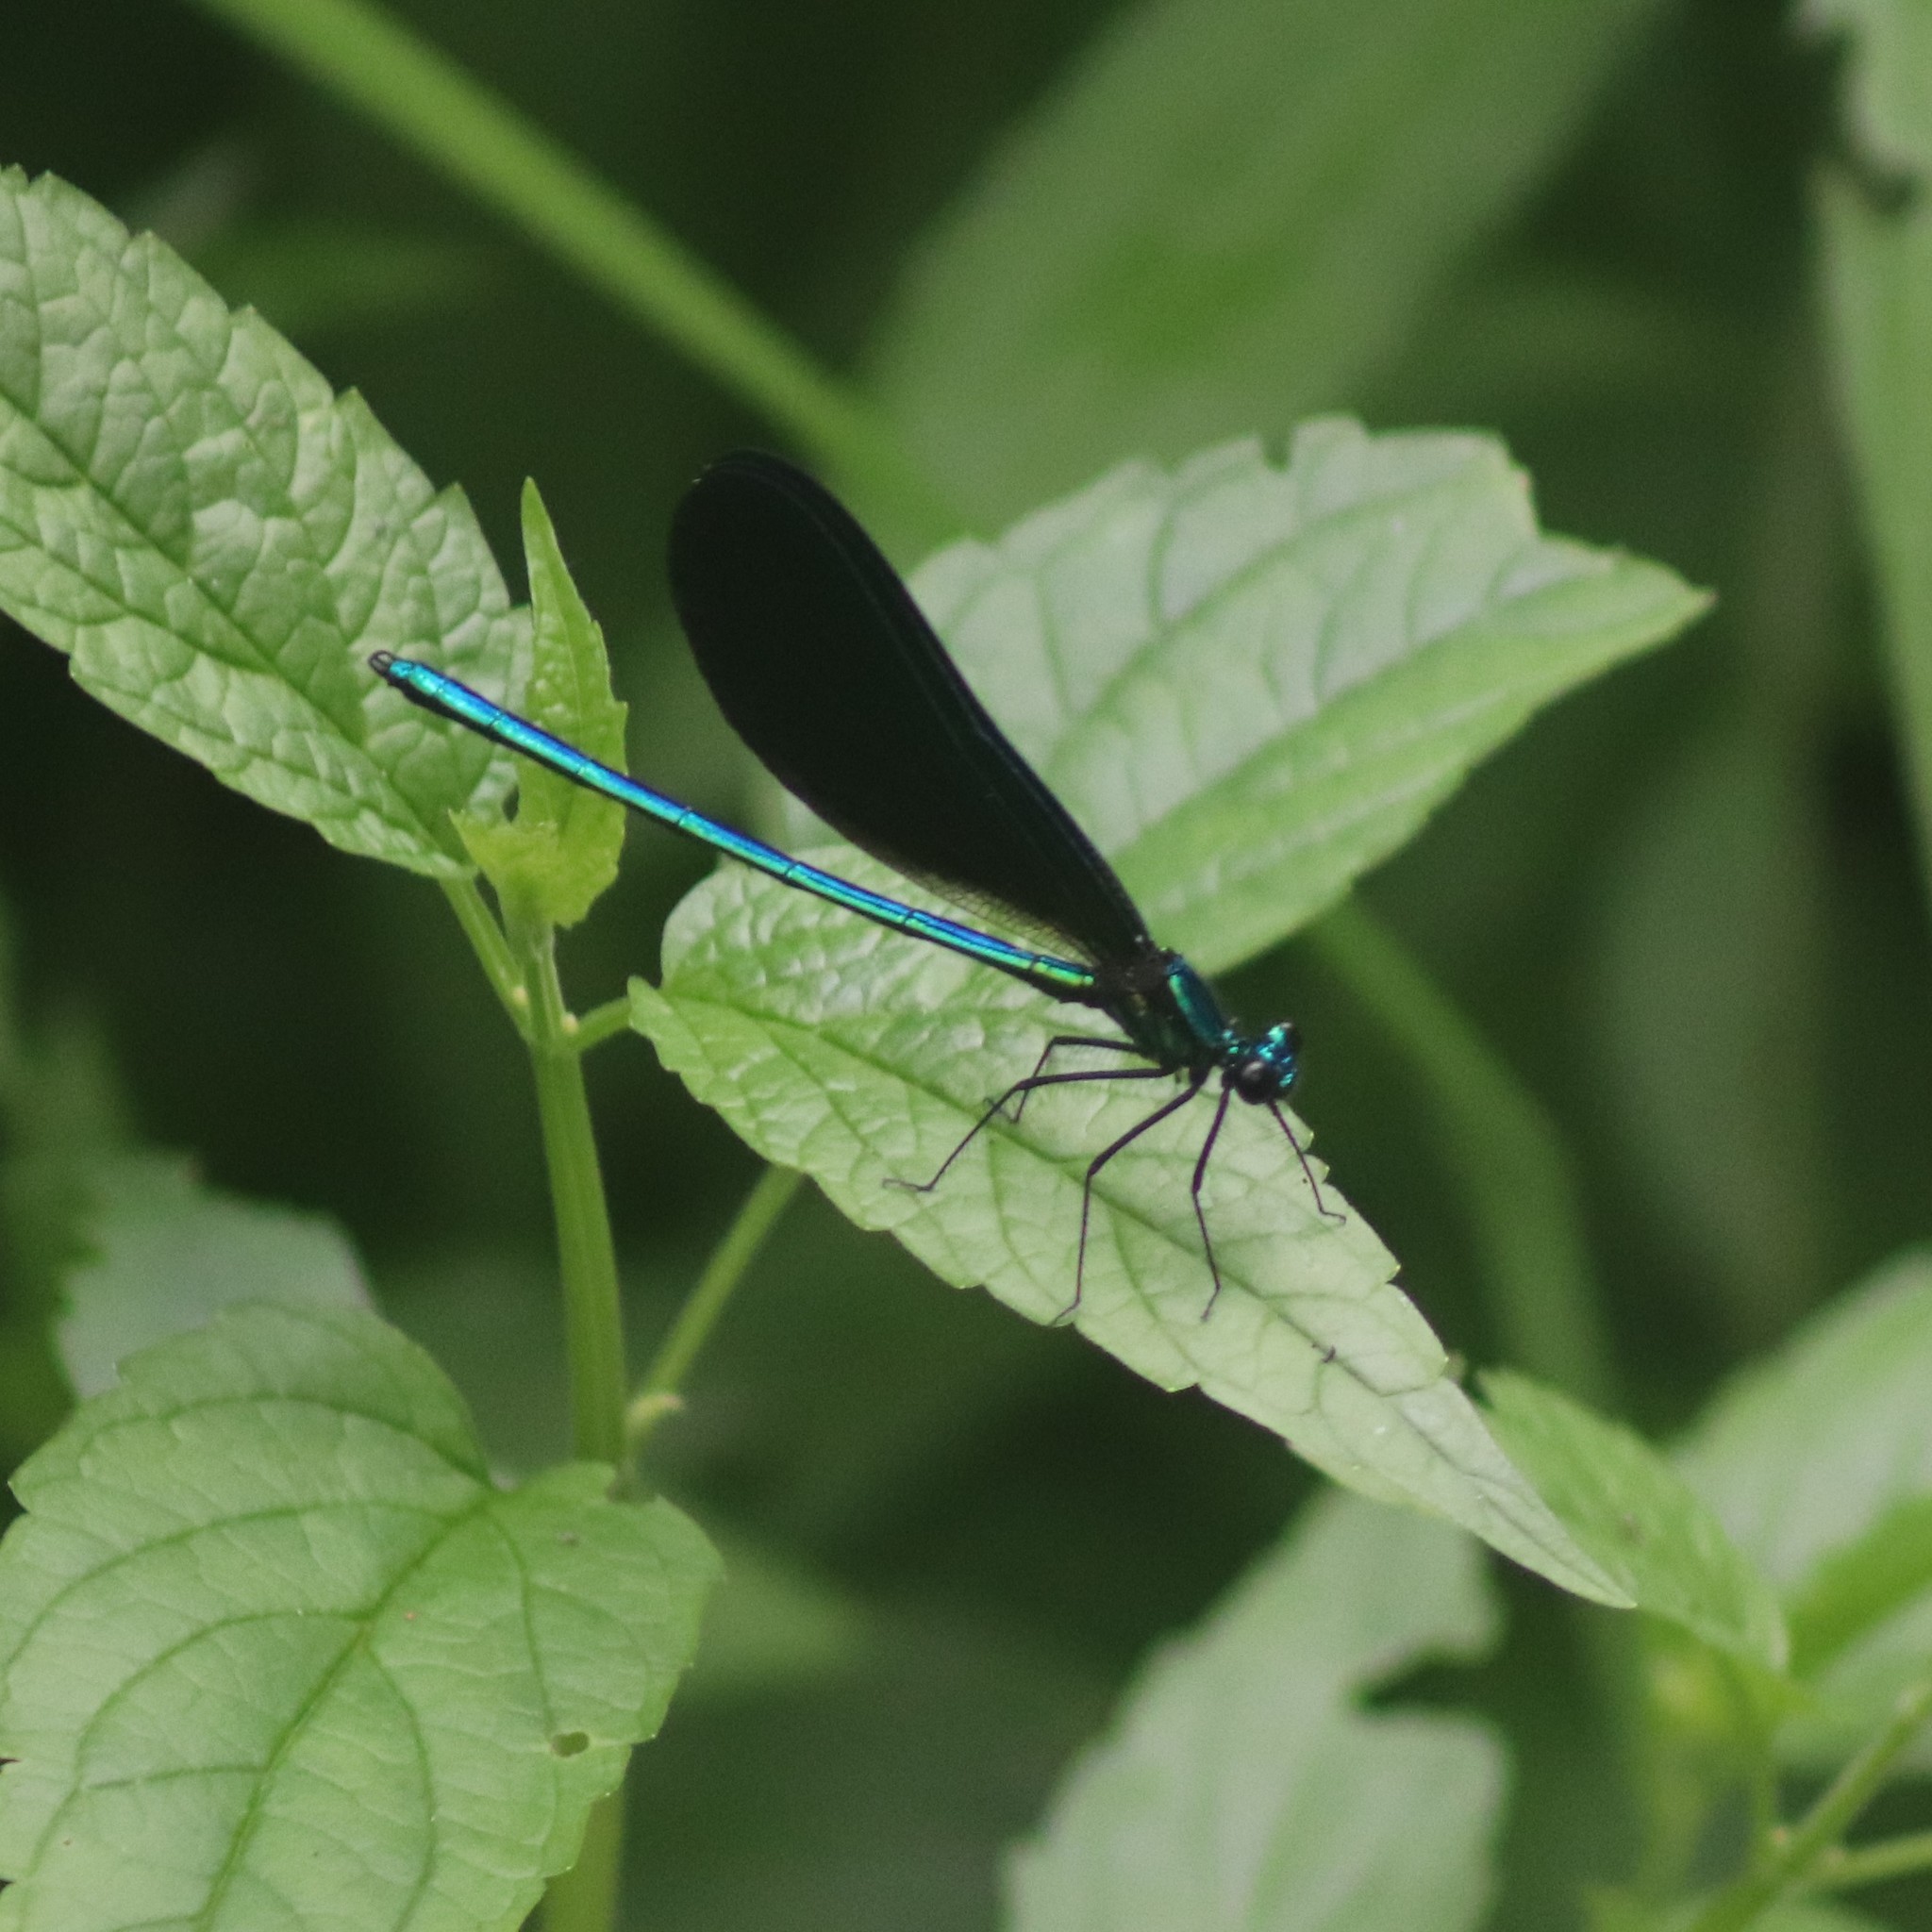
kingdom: Animalia
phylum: Arthropoda
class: Insecta
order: Odonata
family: Calopterygidae
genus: Calopteryx
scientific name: Calopteryx maculata
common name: Ebony jewelwing
